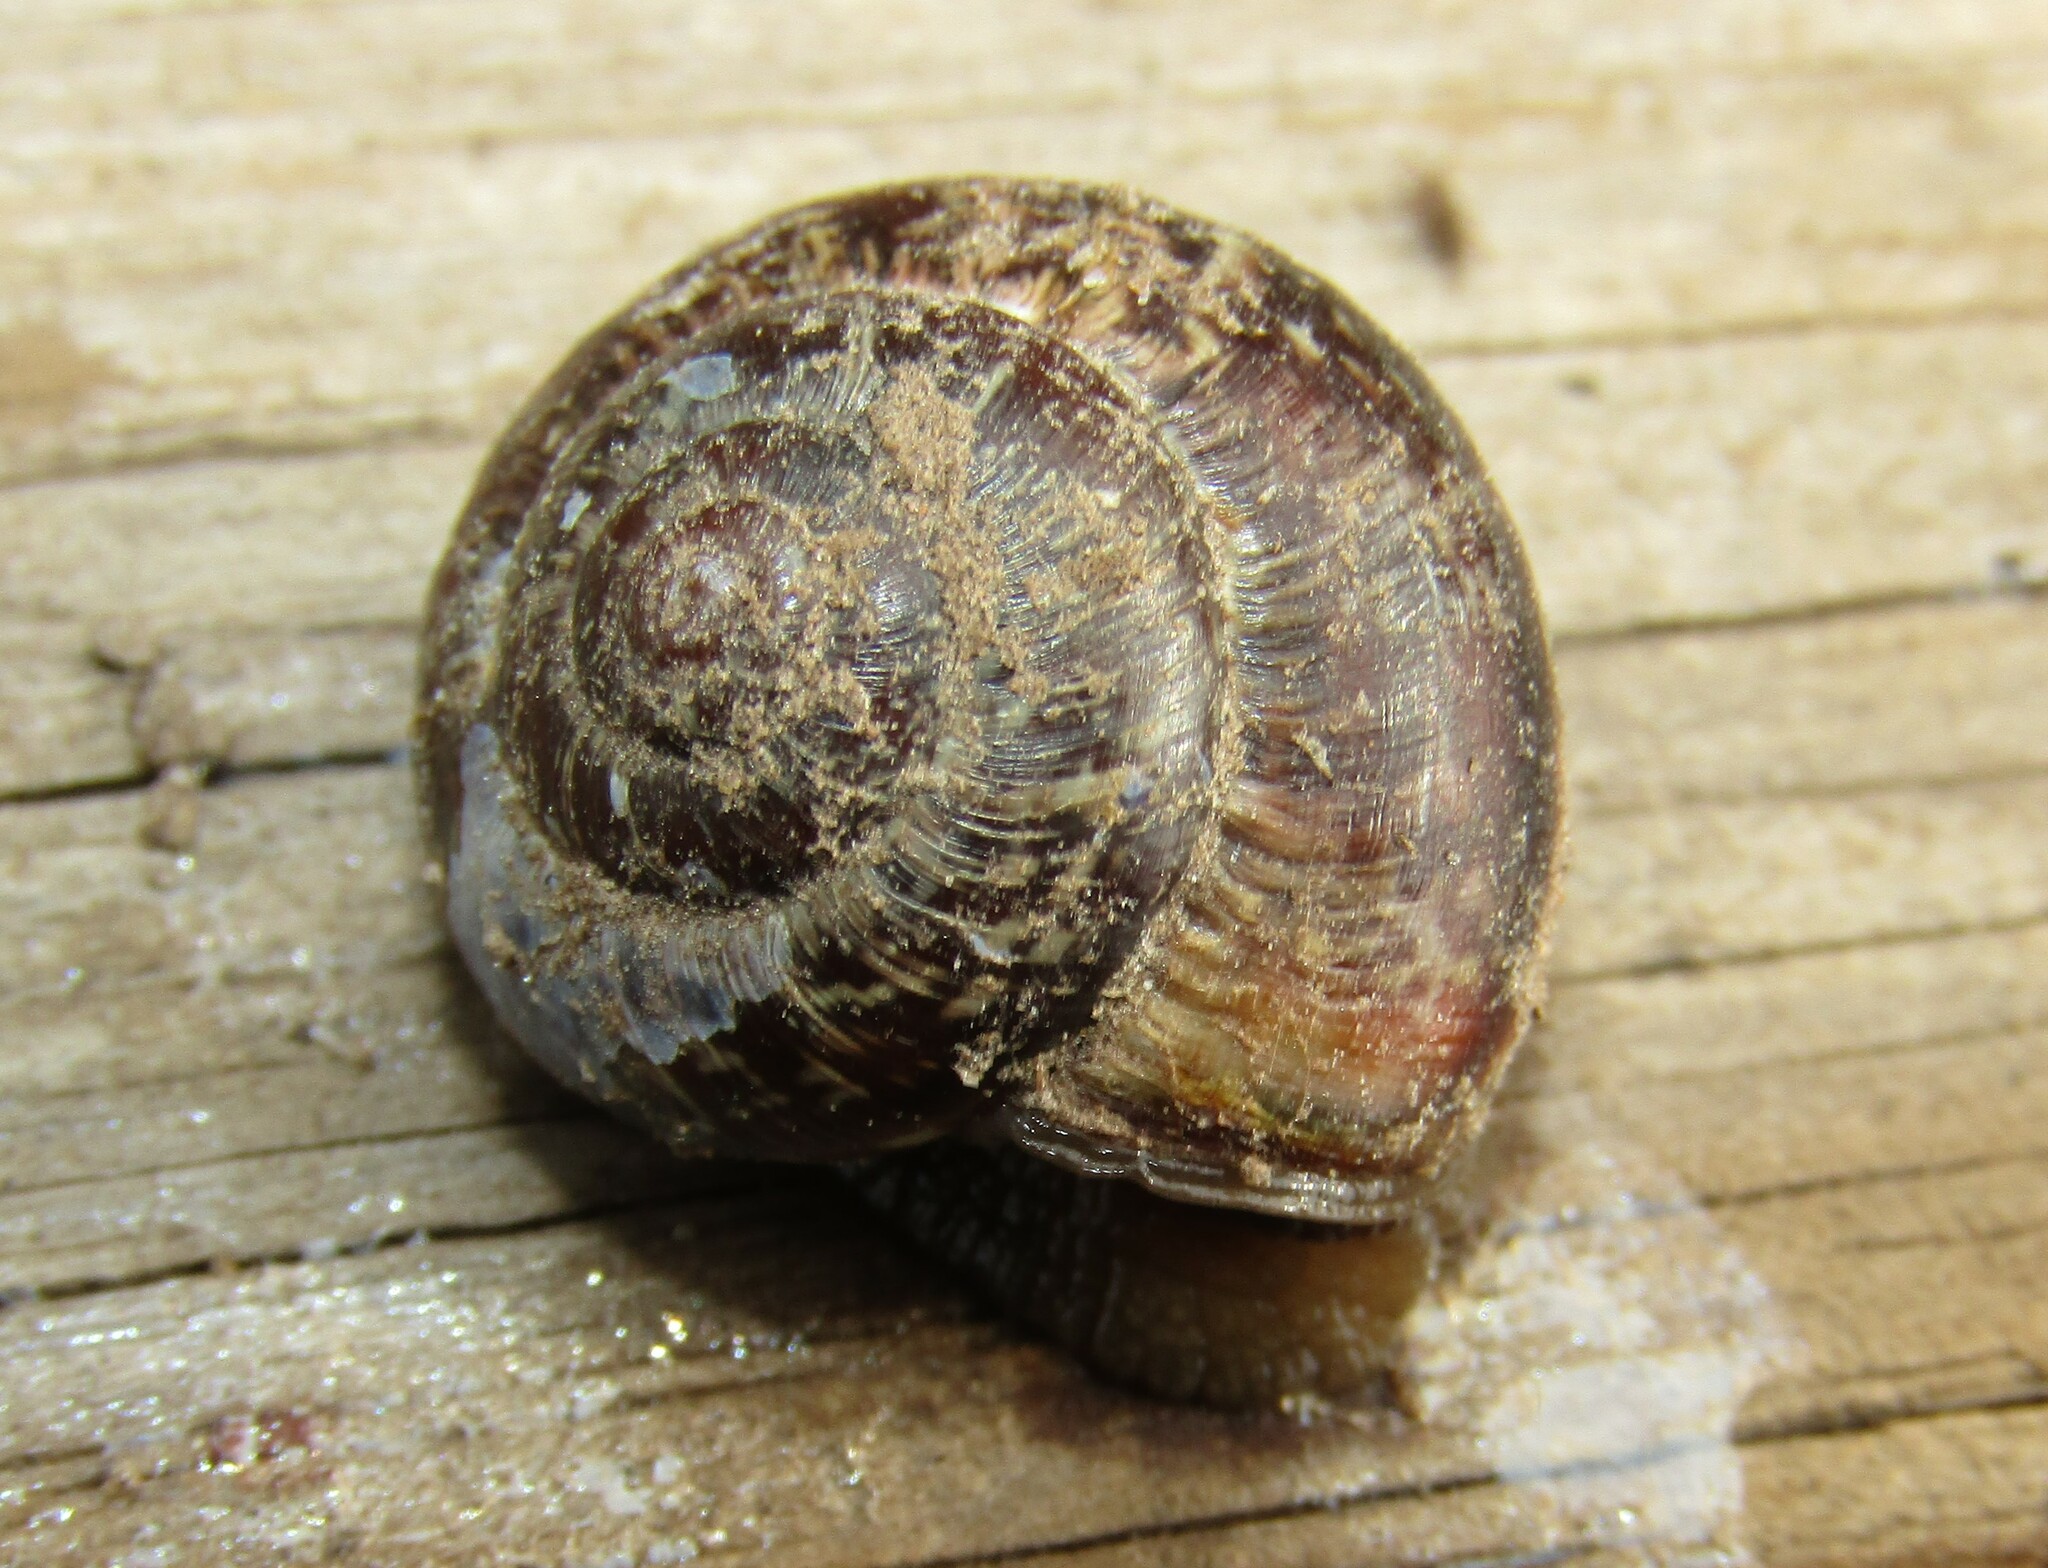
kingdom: Animalia
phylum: Mollusca
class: Gastropoda
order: Stylommatophora
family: Helicidae
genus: Arianta
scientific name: Arianta arbustorum
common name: Copse snail
